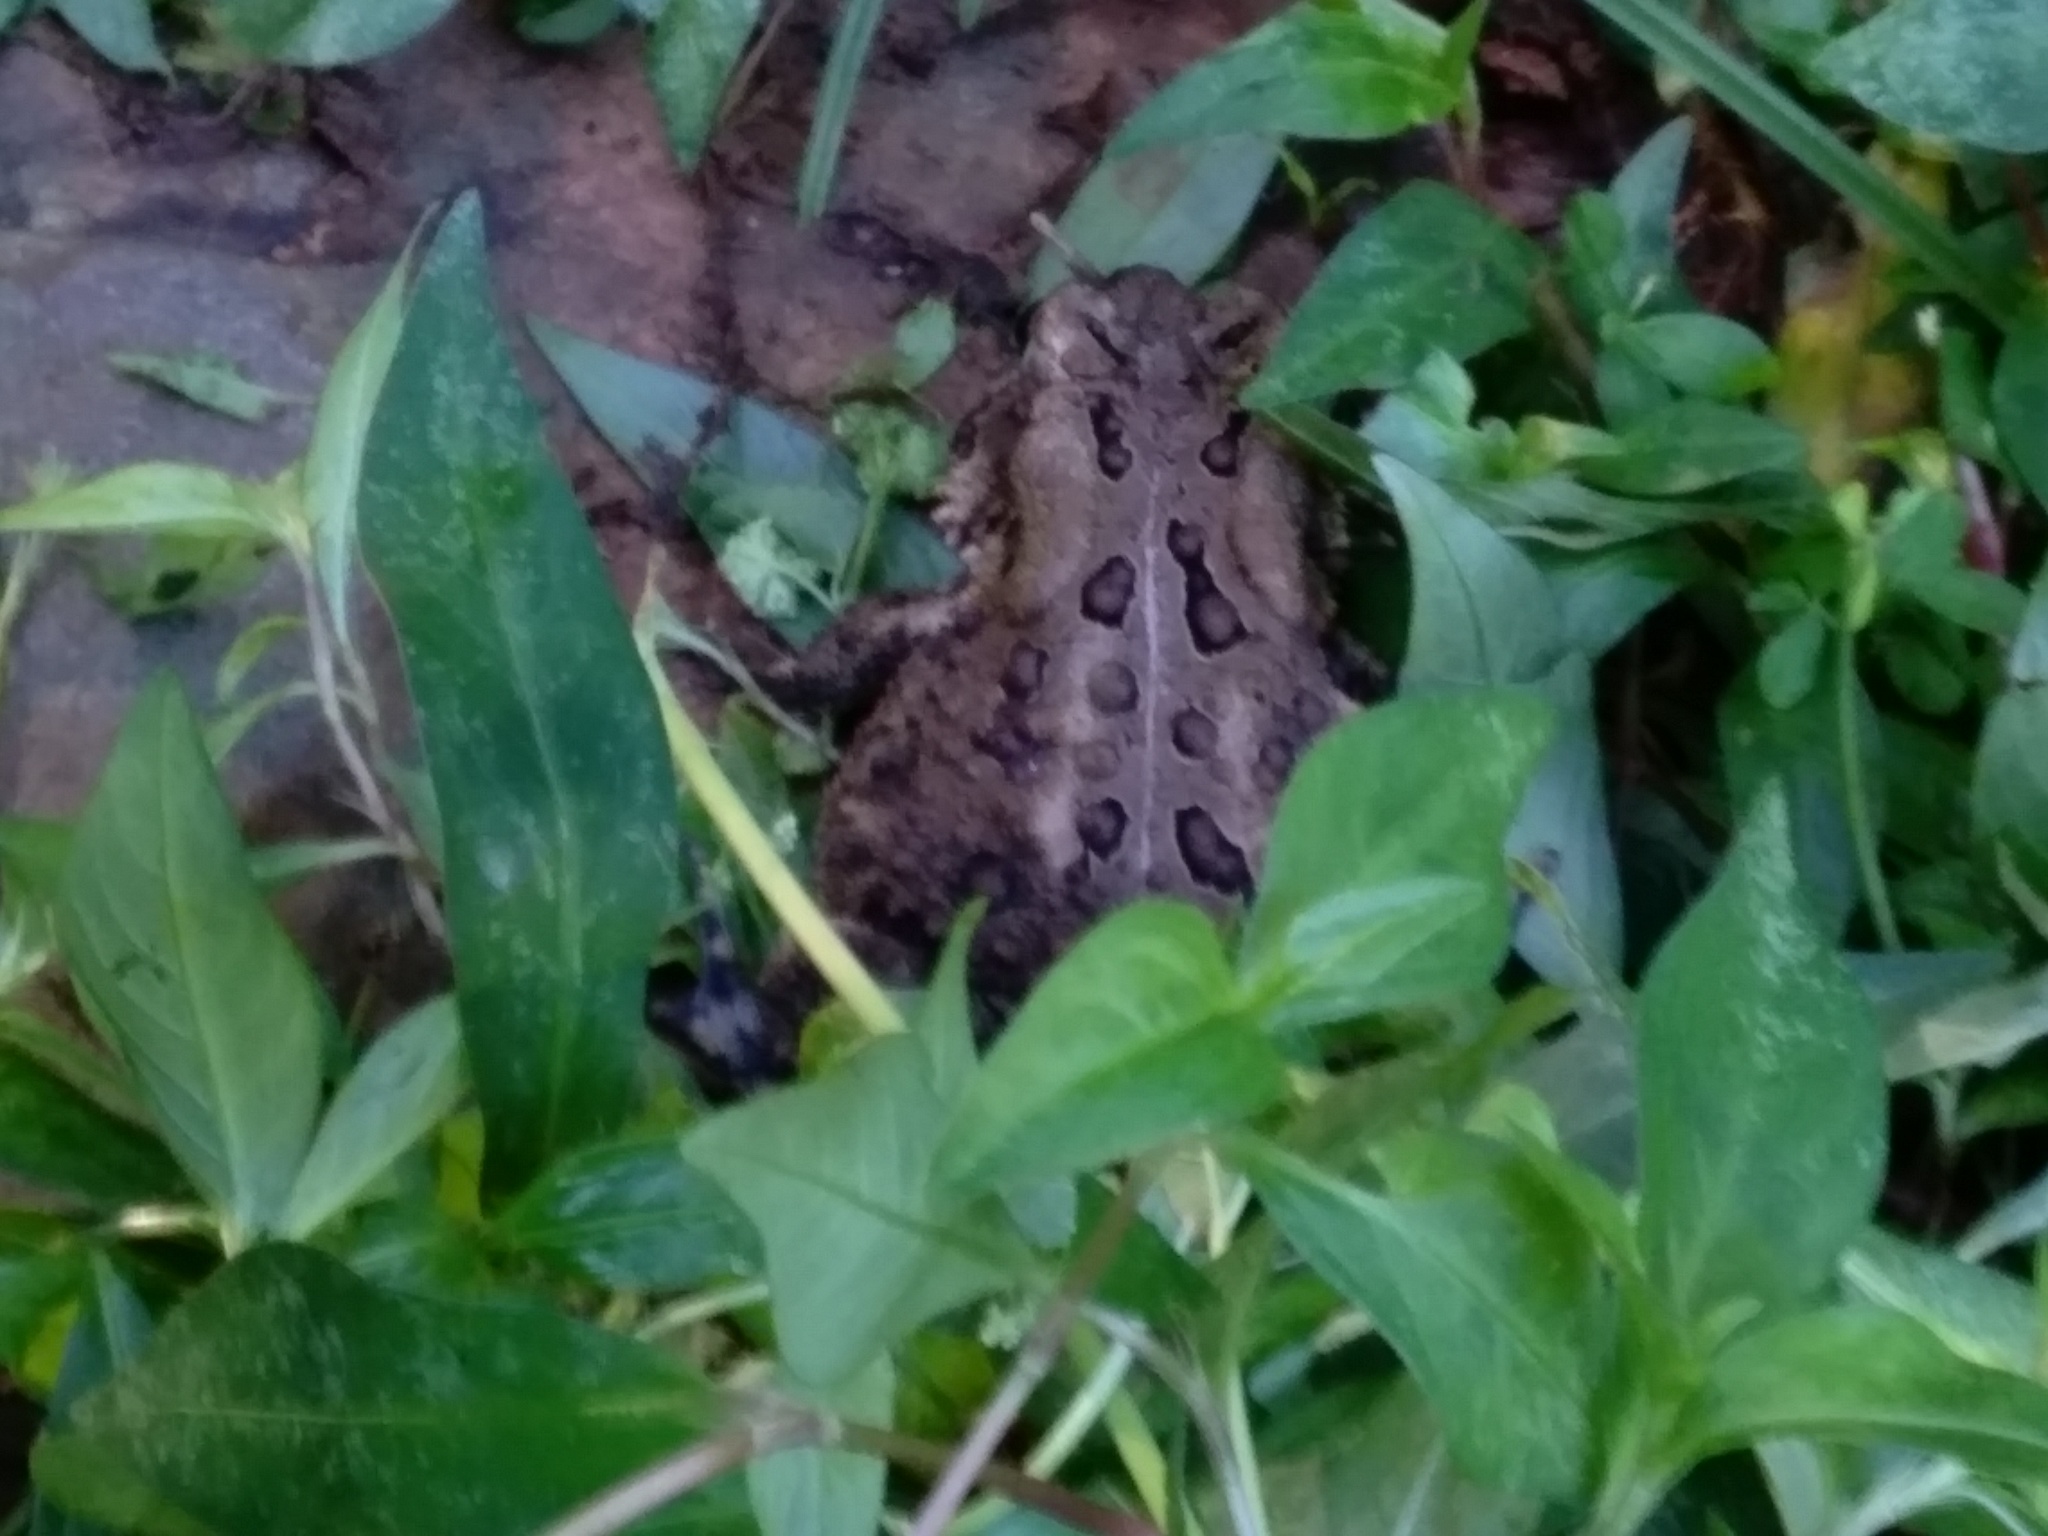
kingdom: Animalia
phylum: Chordata
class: Amphibia
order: Anura
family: Bufonidae
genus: Anaxyrus
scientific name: Anaxyrus americanus
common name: American toad
